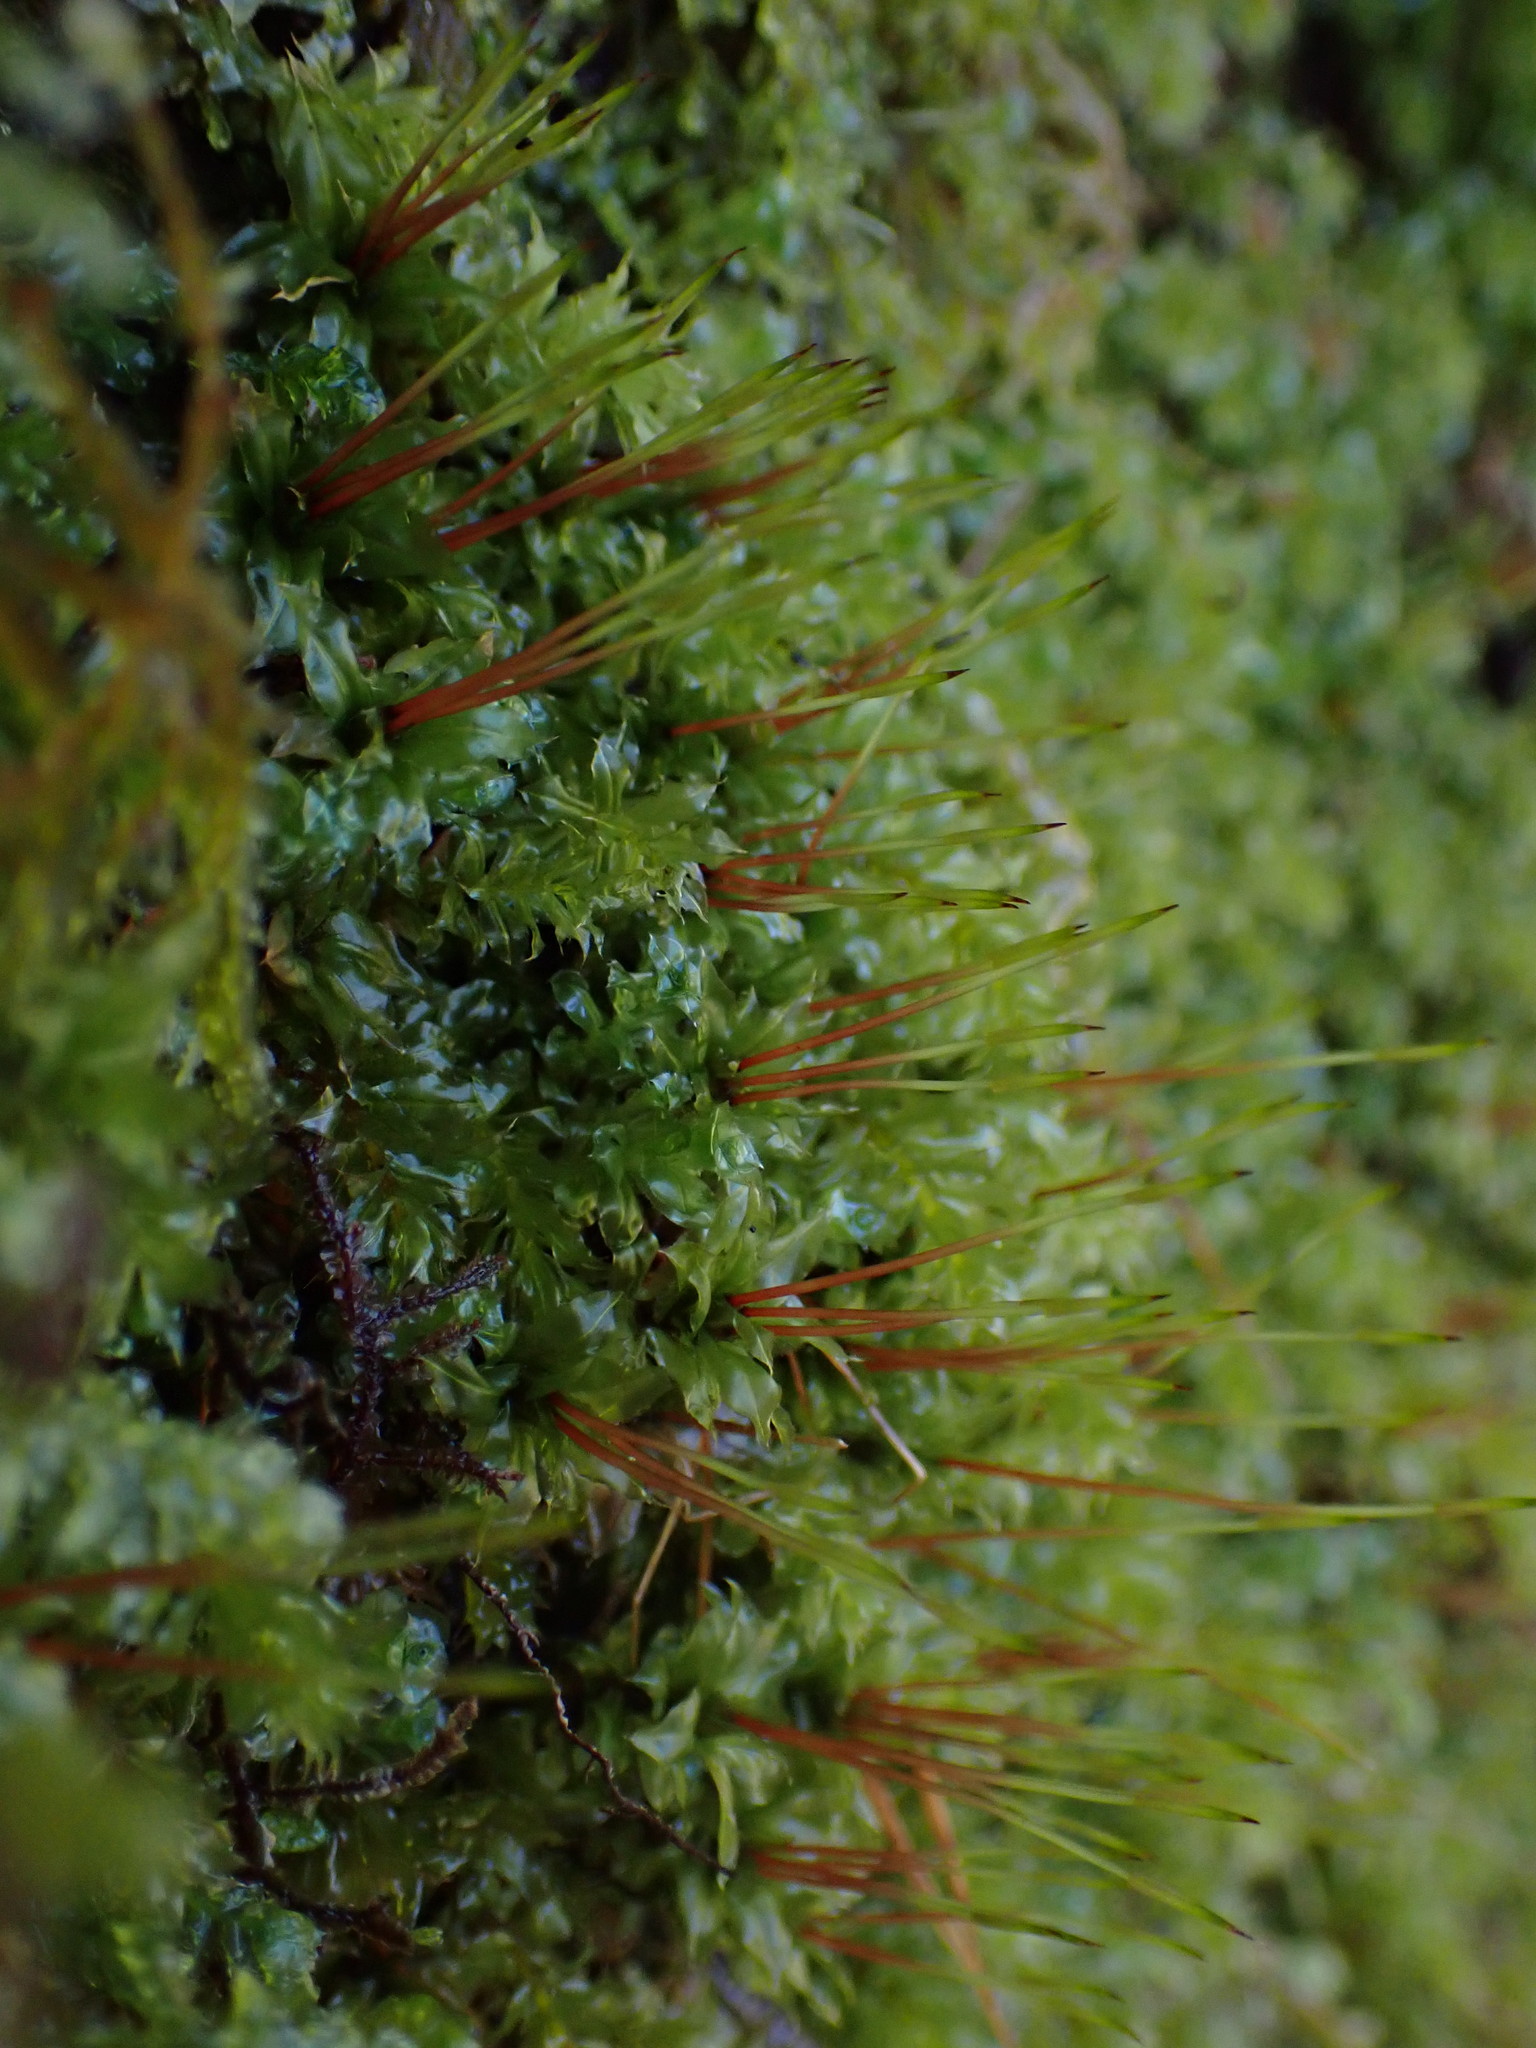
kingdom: Plantae
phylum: Bryophyta
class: Bryopsida
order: Bryales
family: Mniaceae
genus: Plagiomnium
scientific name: Plagiomnium venustum
